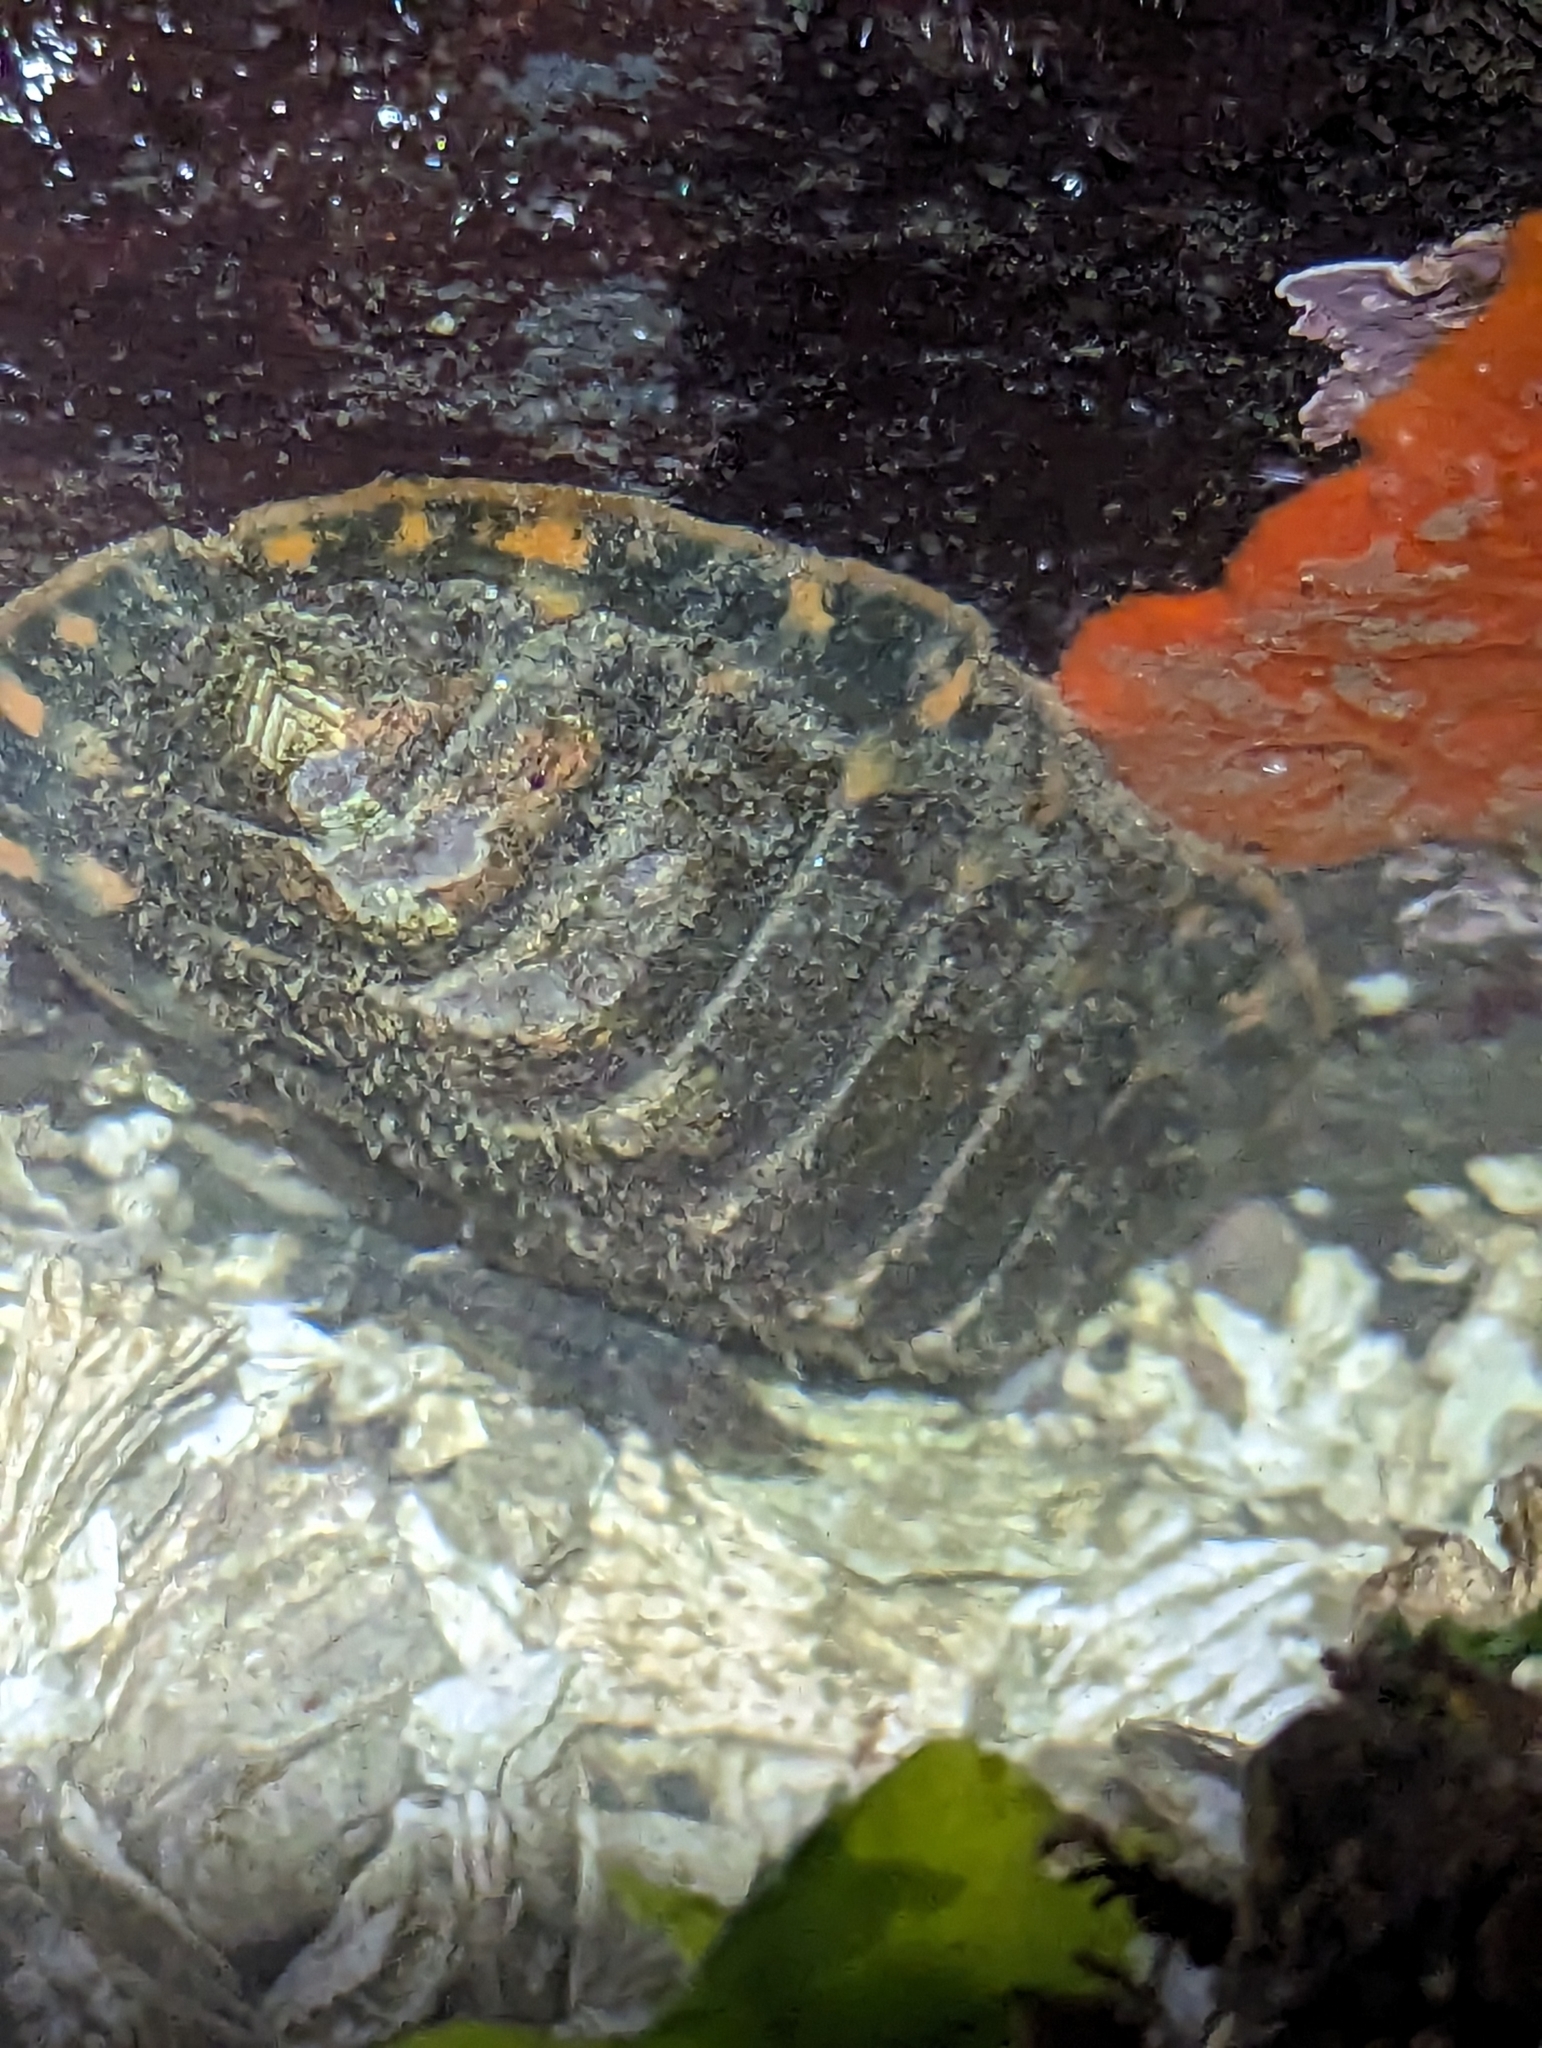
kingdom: Animalia
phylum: Mollusca
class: Polyplacophora
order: Chitonida
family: Tonicellidae
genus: Tonicella
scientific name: Tonicella lineata
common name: Lined chiton
